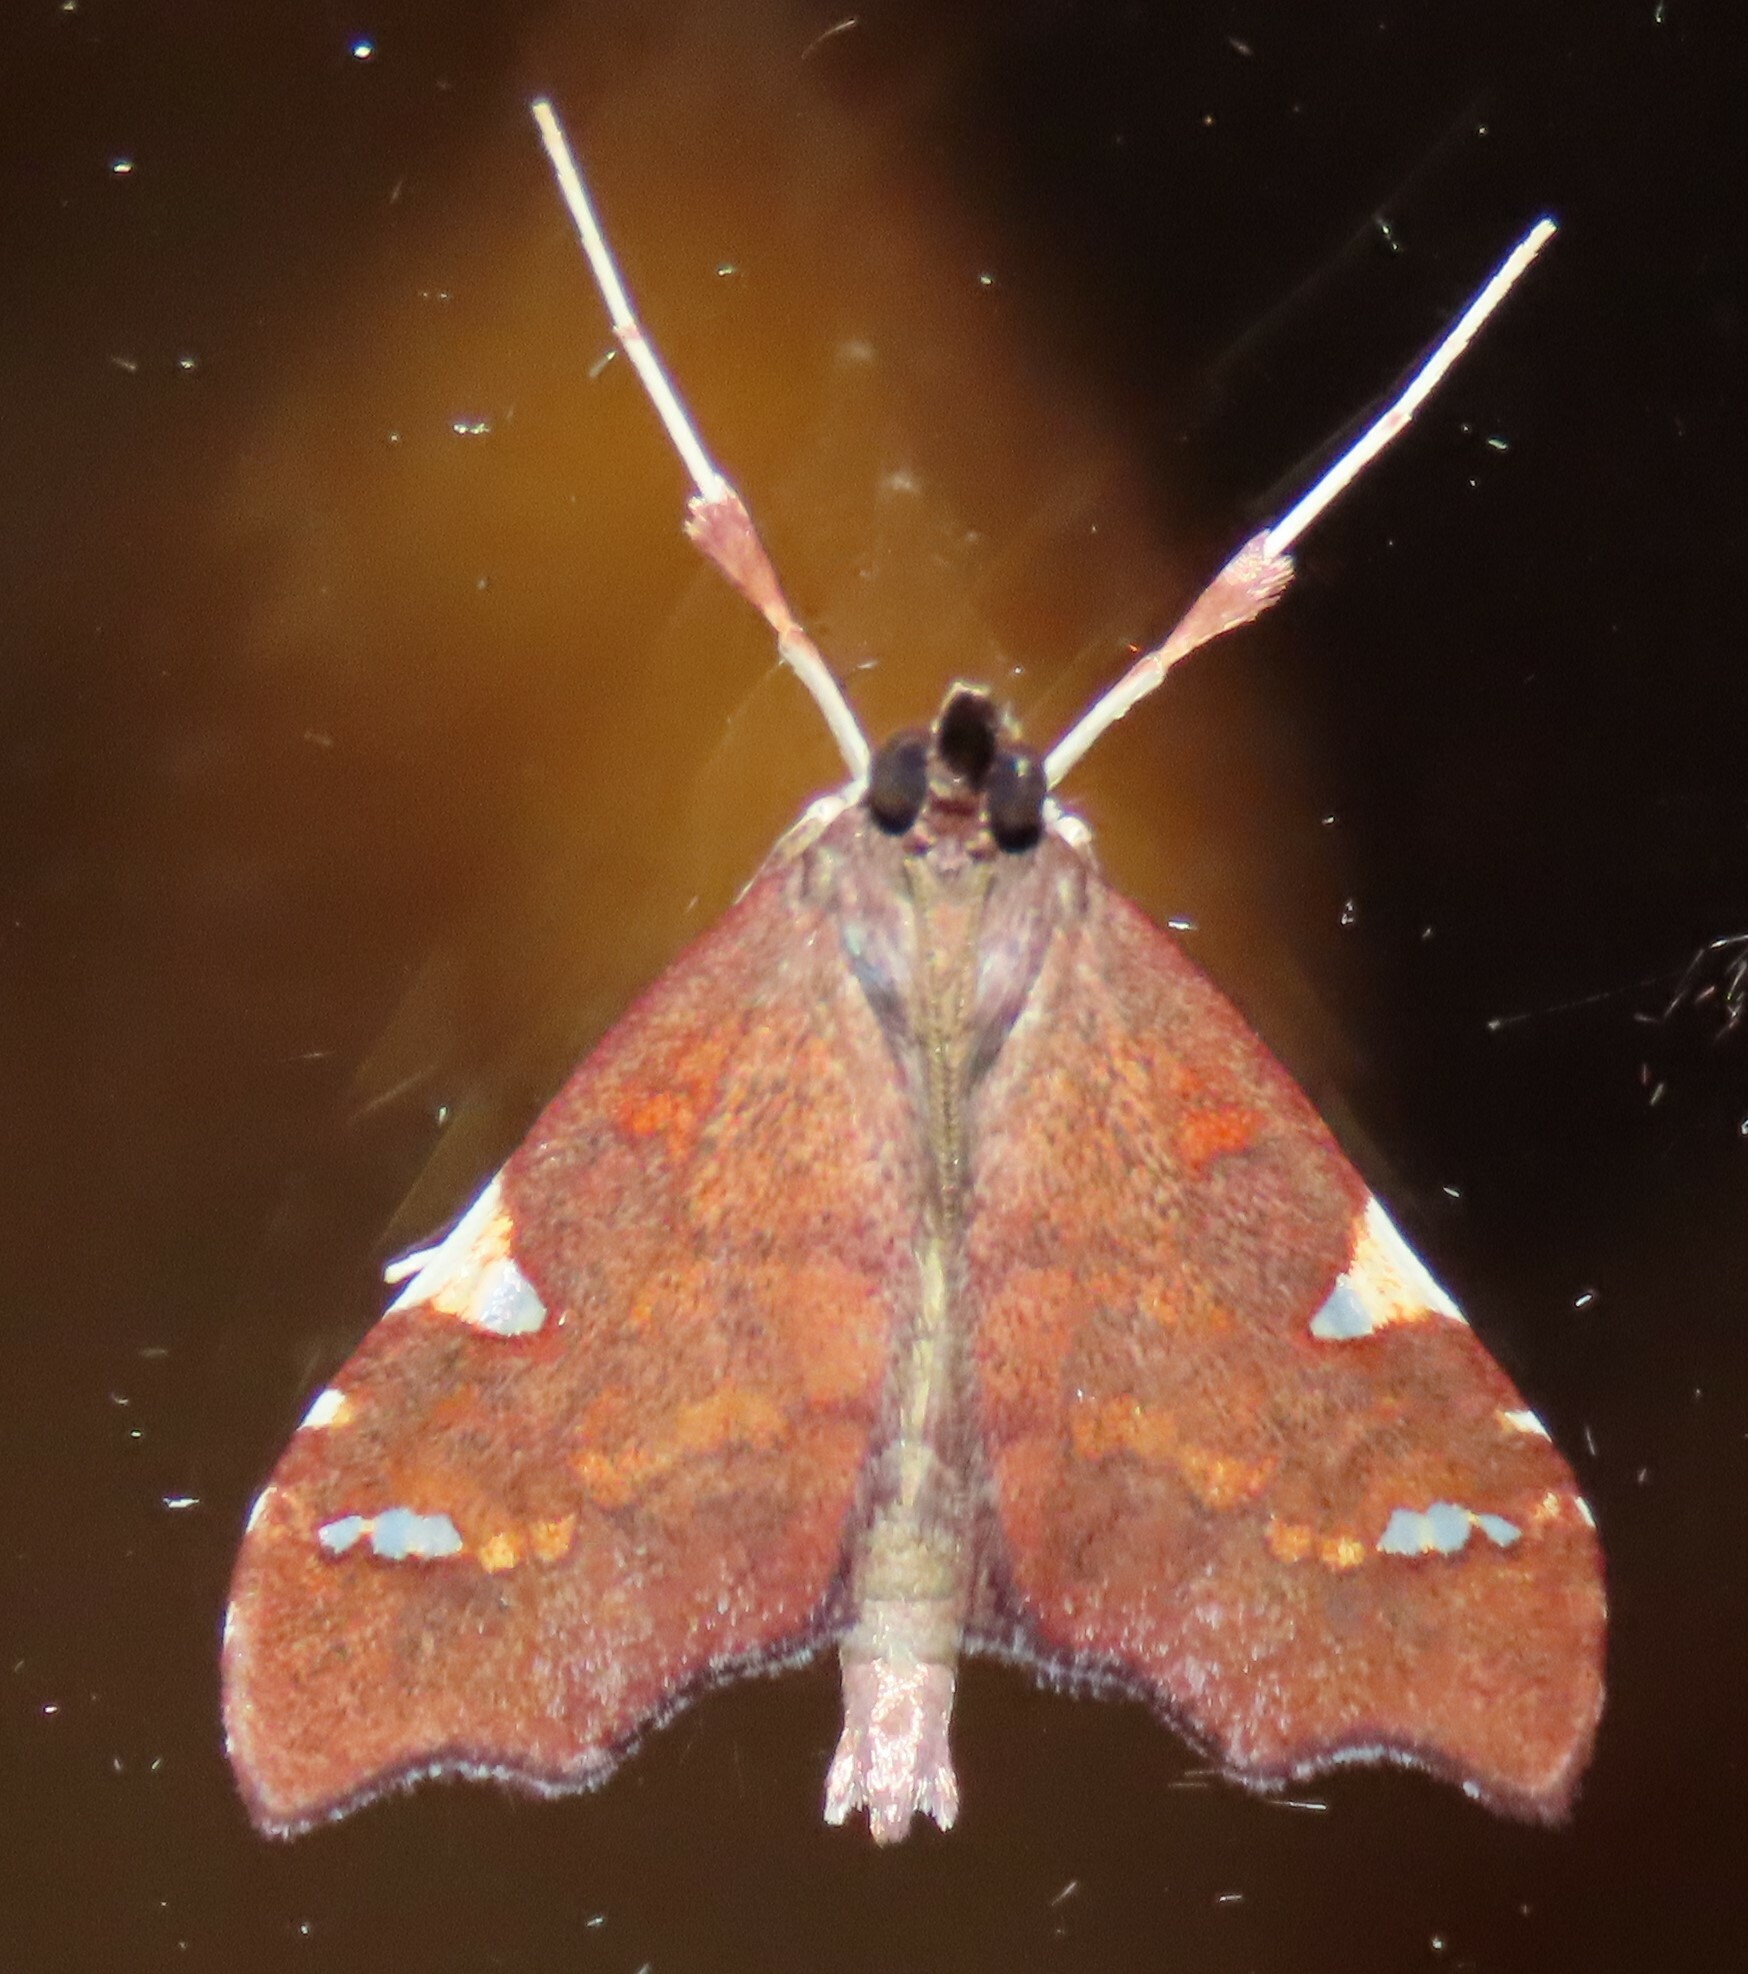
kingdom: Animalia
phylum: Arthropoda
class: Insecta
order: Lepidoptera
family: Crambidae
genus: Deana
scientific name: Deana hybreasalis
